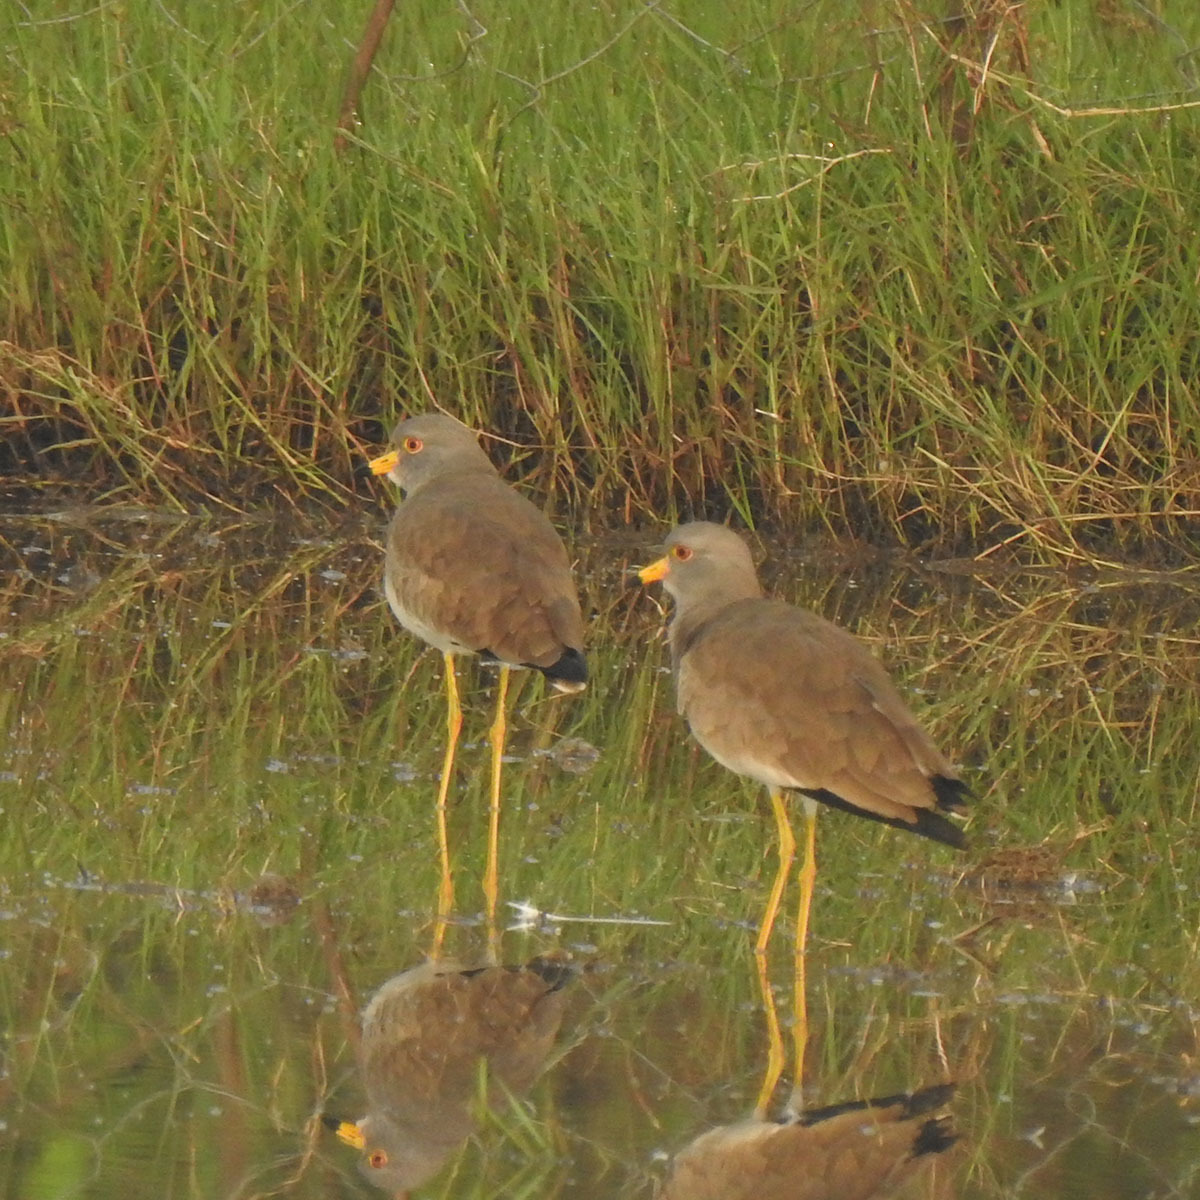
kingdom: Animalia
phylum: Chordata
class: Aves
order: Charadriiformes
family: Charadriidae
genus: Vanellus
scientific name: Vanellus cinereus
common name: Grey-headed lapwing
